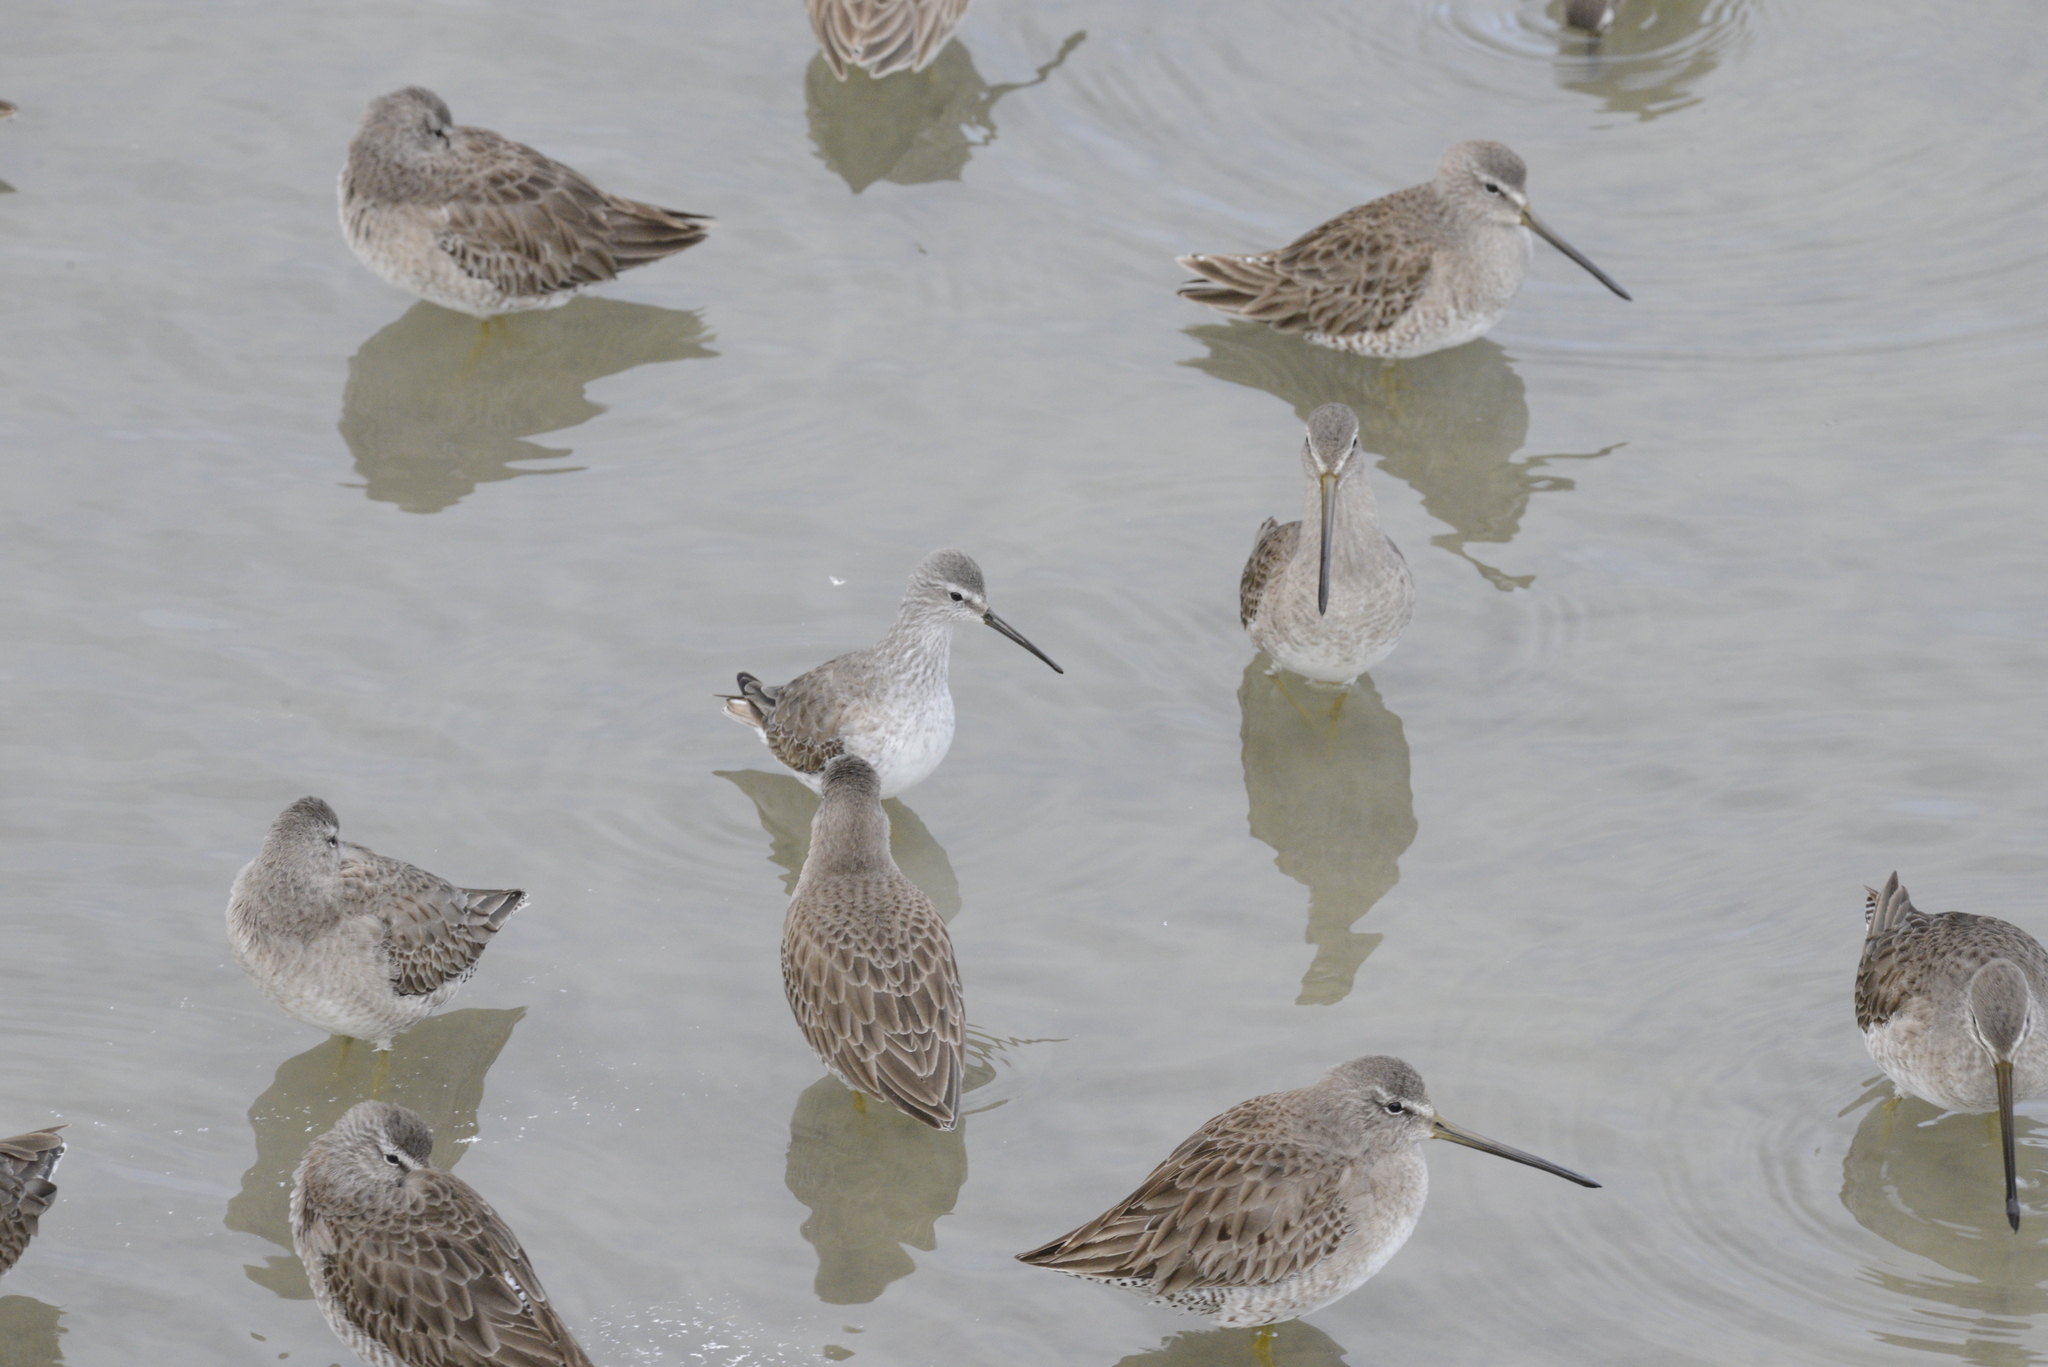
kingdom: Animalia
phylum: Chordata
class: Aves
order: Charadriiformes
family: Scolopacidae
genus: Calidris
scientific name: Calidris himantopus
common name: Stilt sandpiper
